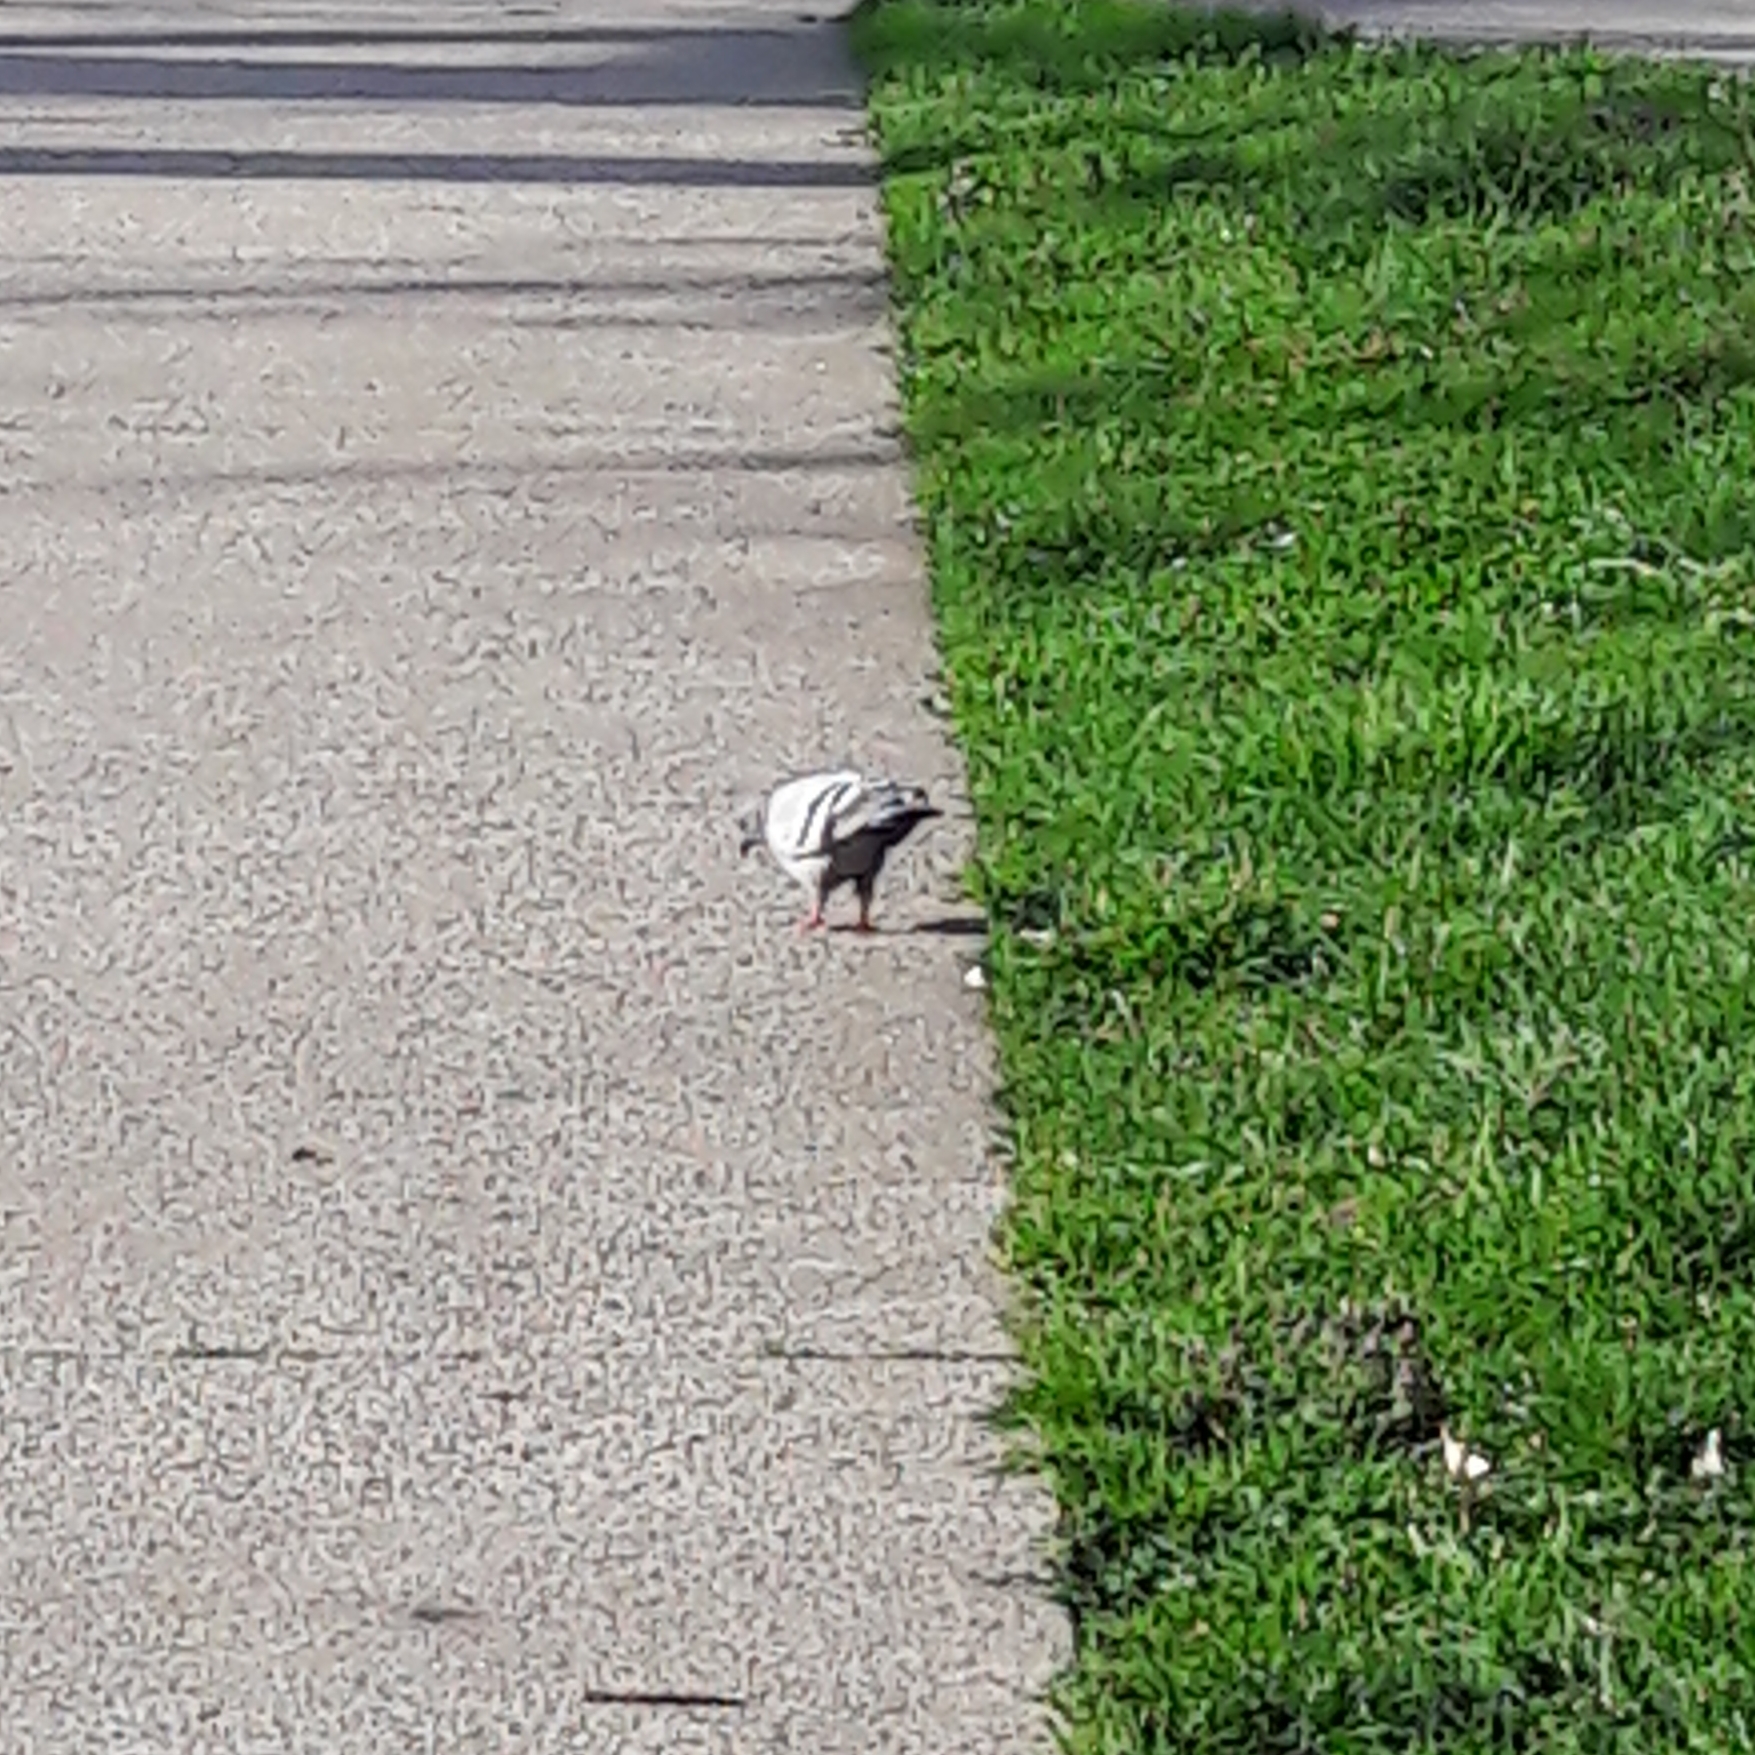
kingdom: Animalia
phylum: Chordata
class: Aves
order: Columbiformes
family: Columbidae
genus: Columba
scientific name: Columba livia
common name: Rock pigeon
